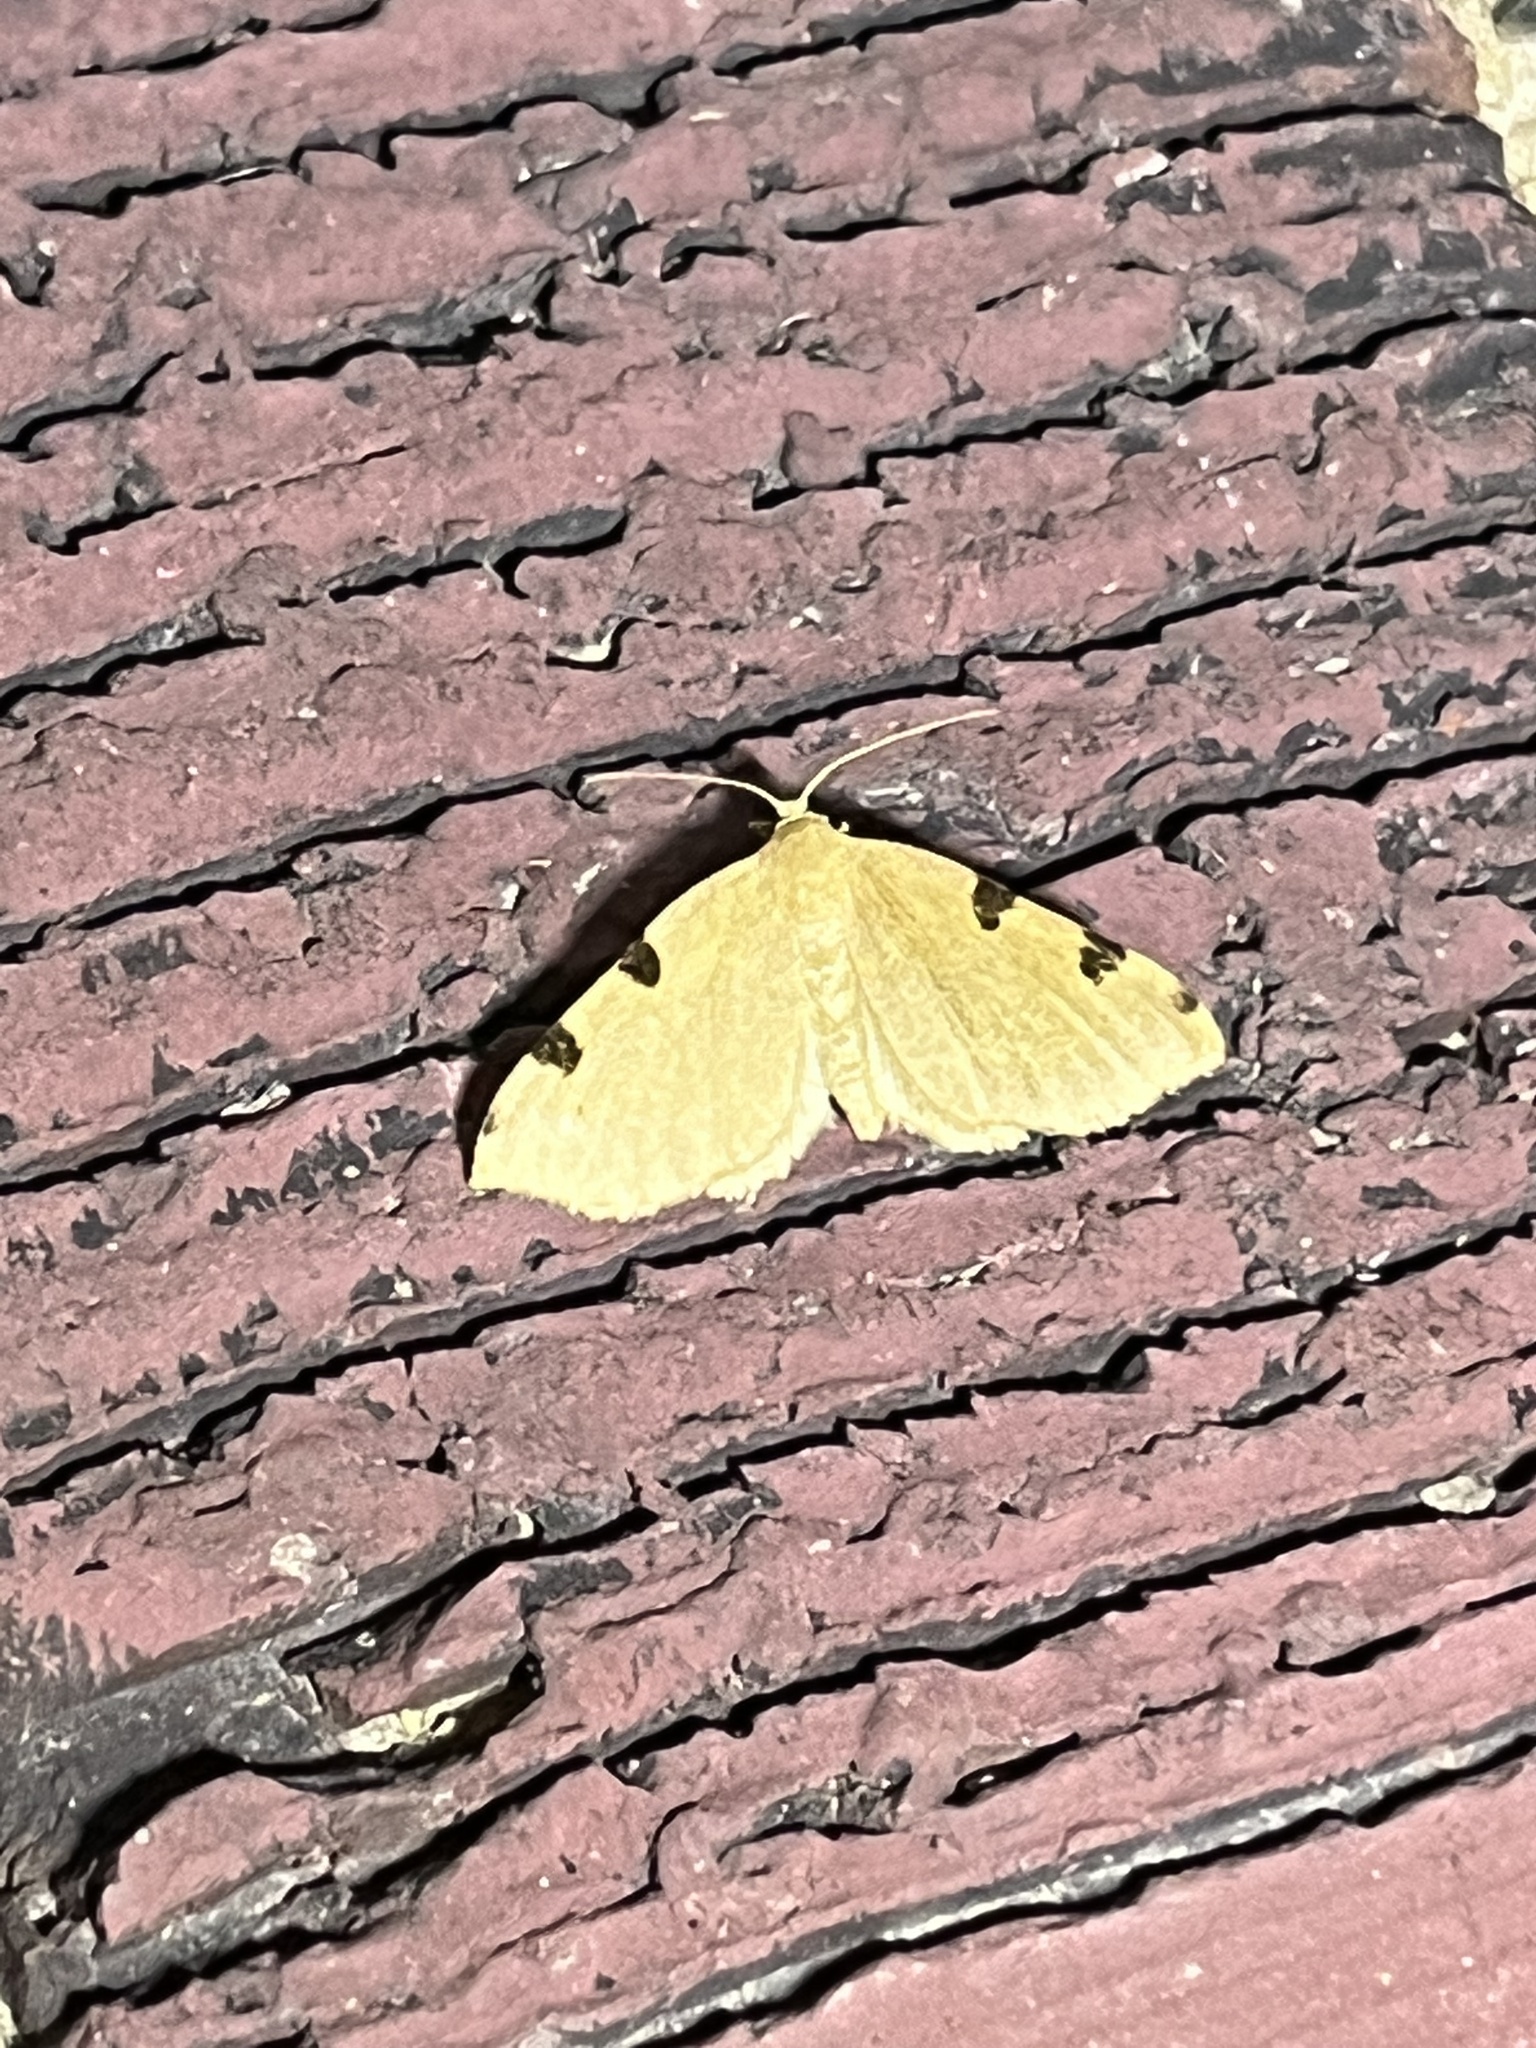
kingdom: Animalia
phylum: Arthropoda
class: Insecta
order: Lepidoptera
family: Geometridae
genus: Heterophleps
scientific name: Heterophleps triguttaria
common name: Three-spotted fillip
